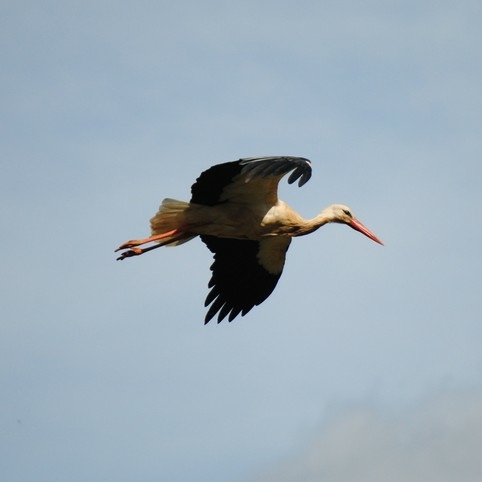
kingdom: Animalia
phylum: Chordata
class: Aves
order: Ciconiiformes
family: Ciconiidae
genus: Ciconia
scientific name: Ciconia ciconia
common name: White stork
